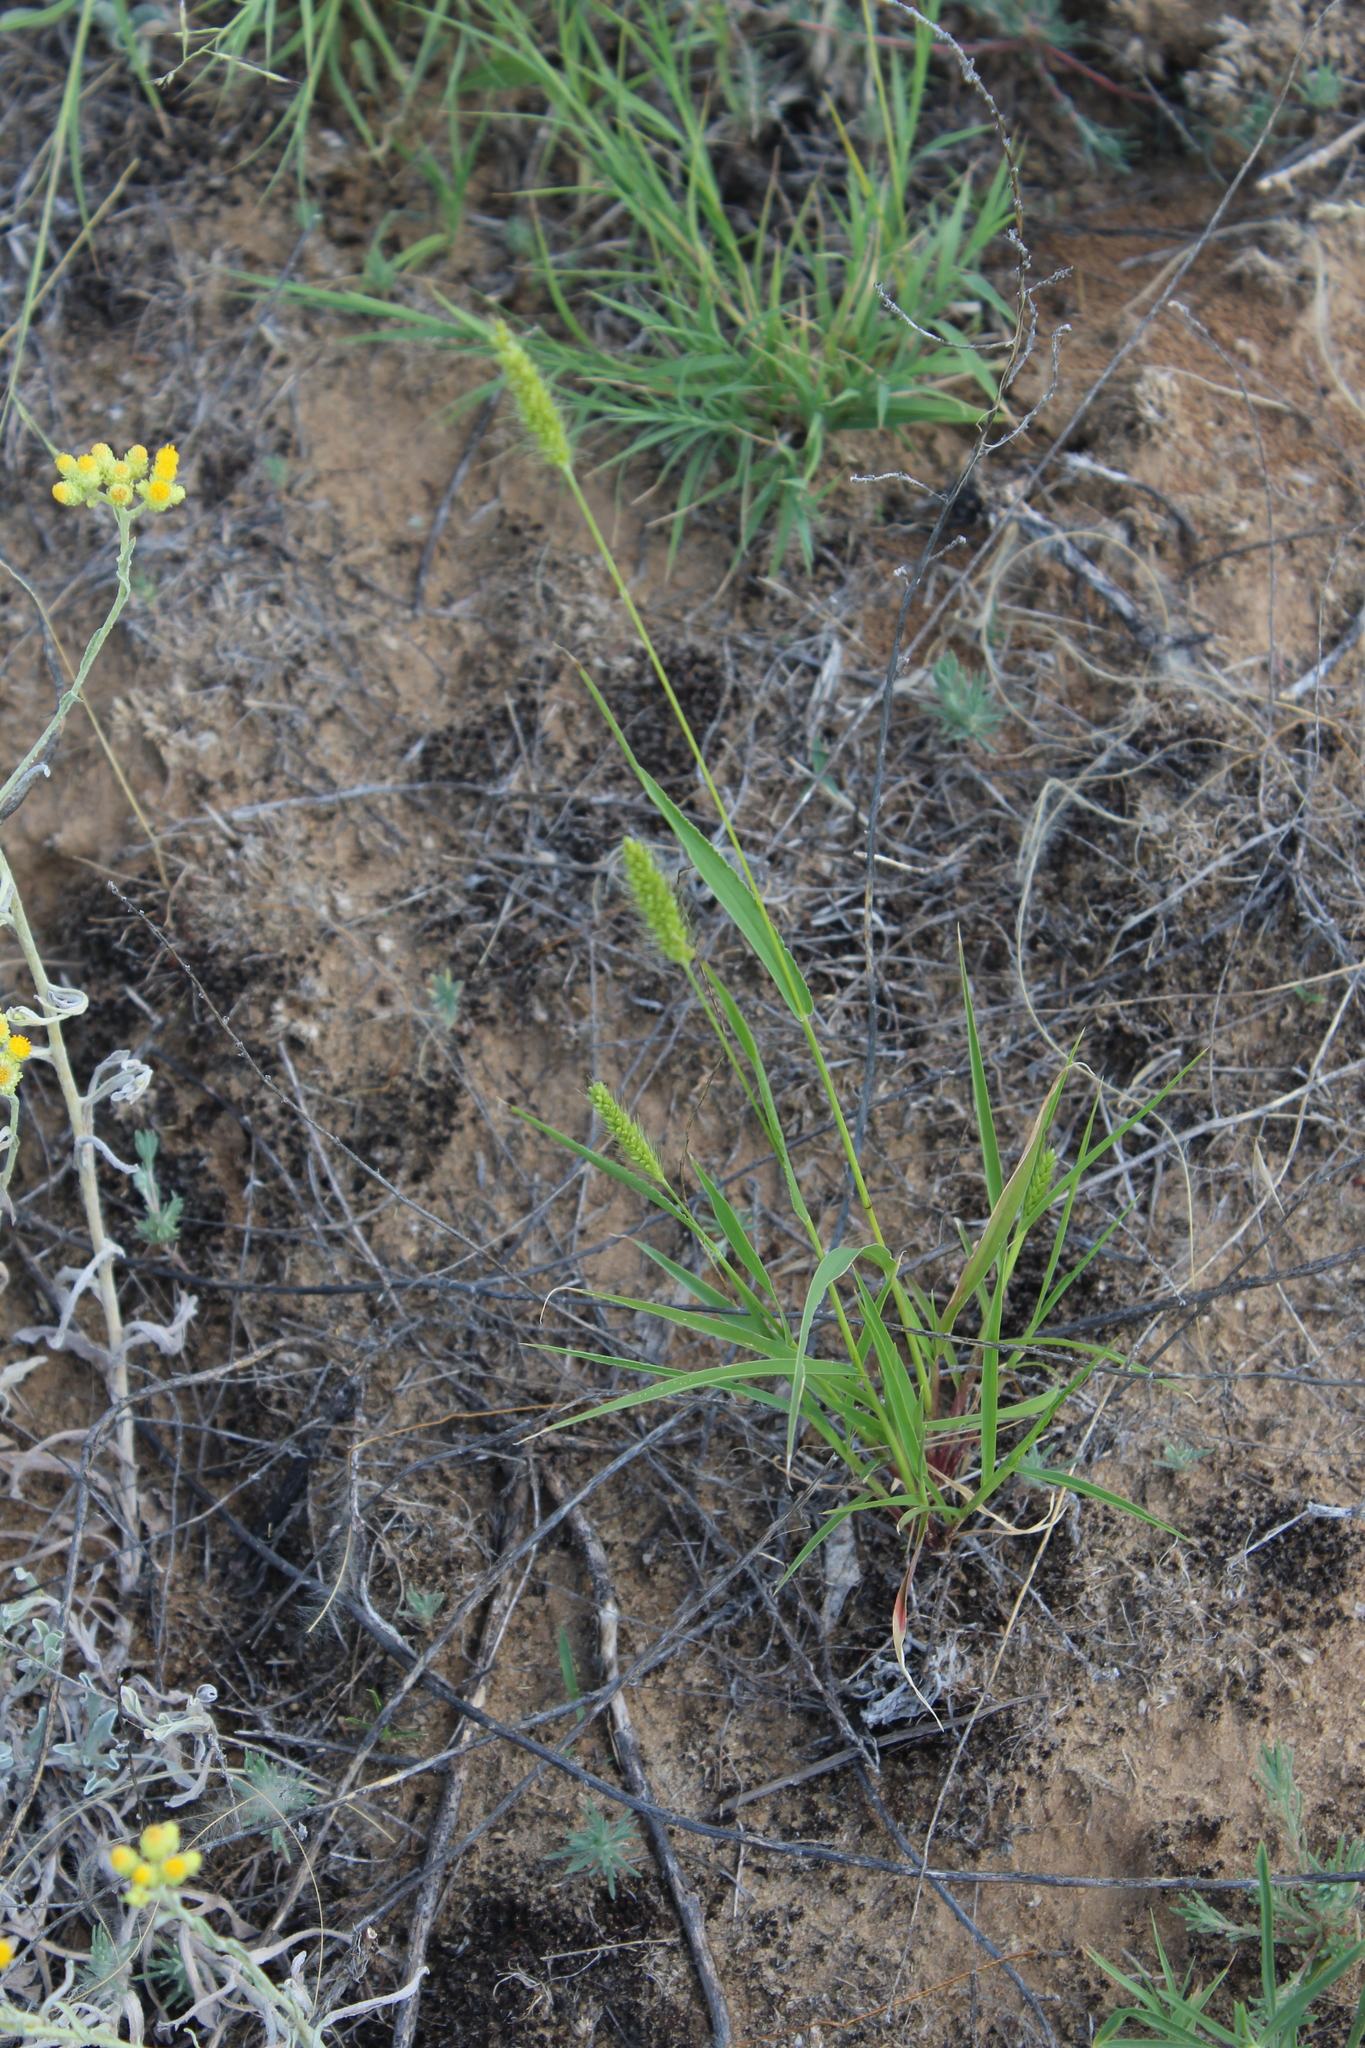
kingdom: Plantae
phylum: Tracheophyta
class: Liliopsida
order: Poales
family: Poaceae
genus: Setaria
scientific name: Setaria viridis
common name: Green bristlegrass
